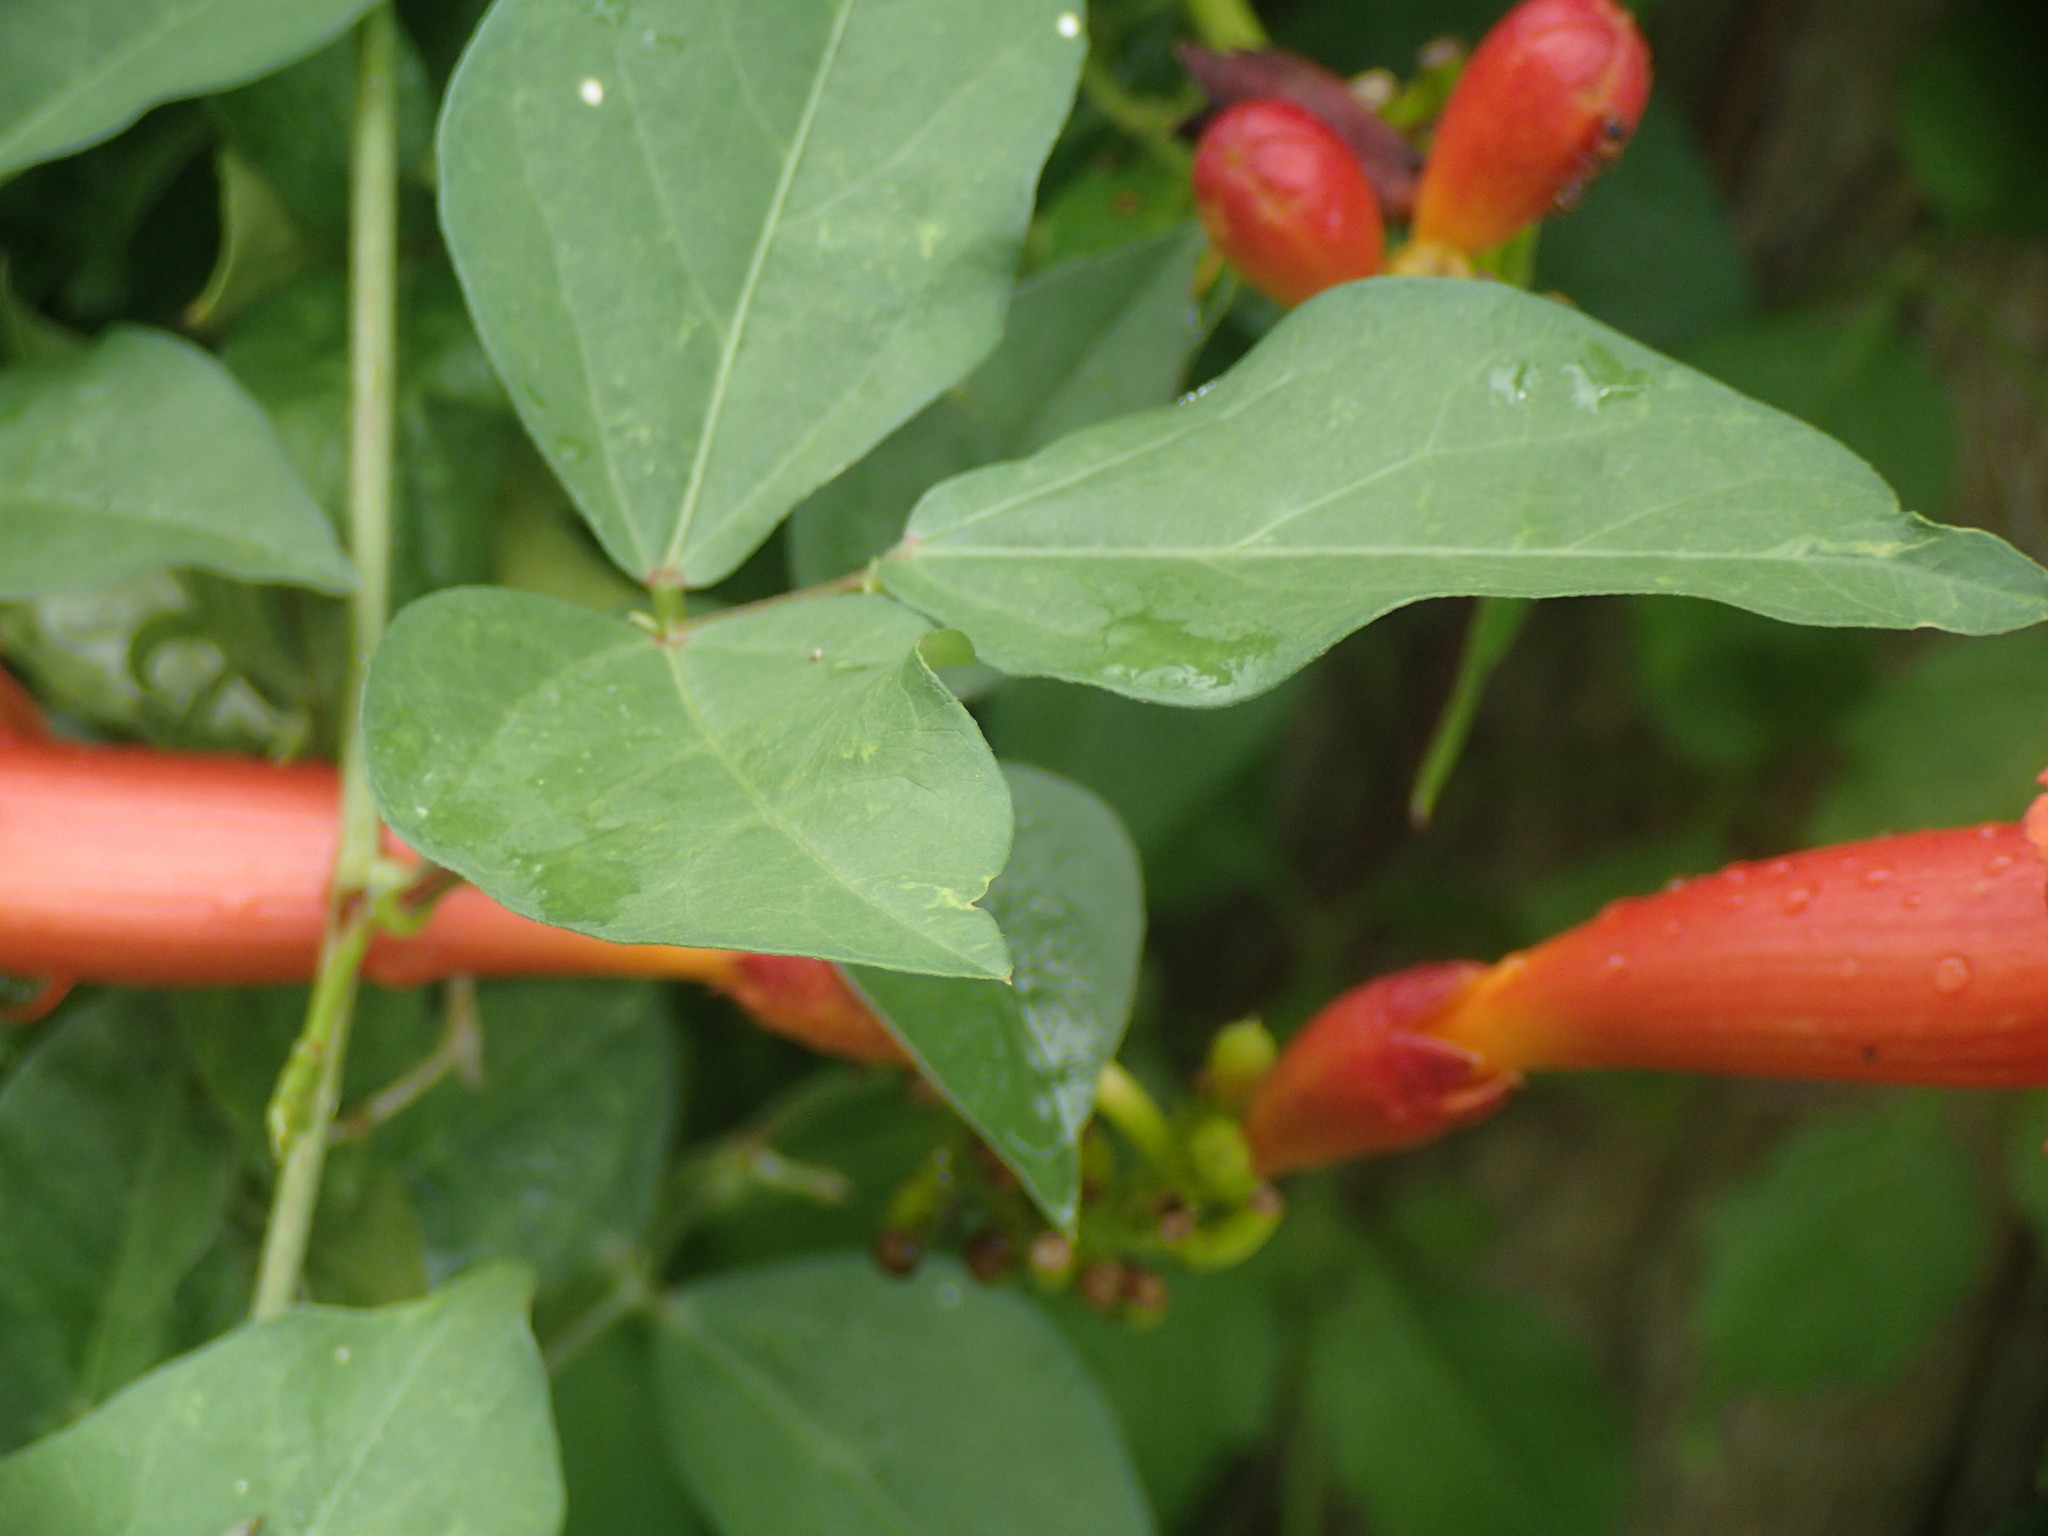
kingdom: Plantae
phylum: Tracheophyta
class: Magnoliopsida
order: Lamiales
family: Bignoniaceae
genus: Campsis
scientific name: Campsis radicans
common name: Trumpet-creeper
